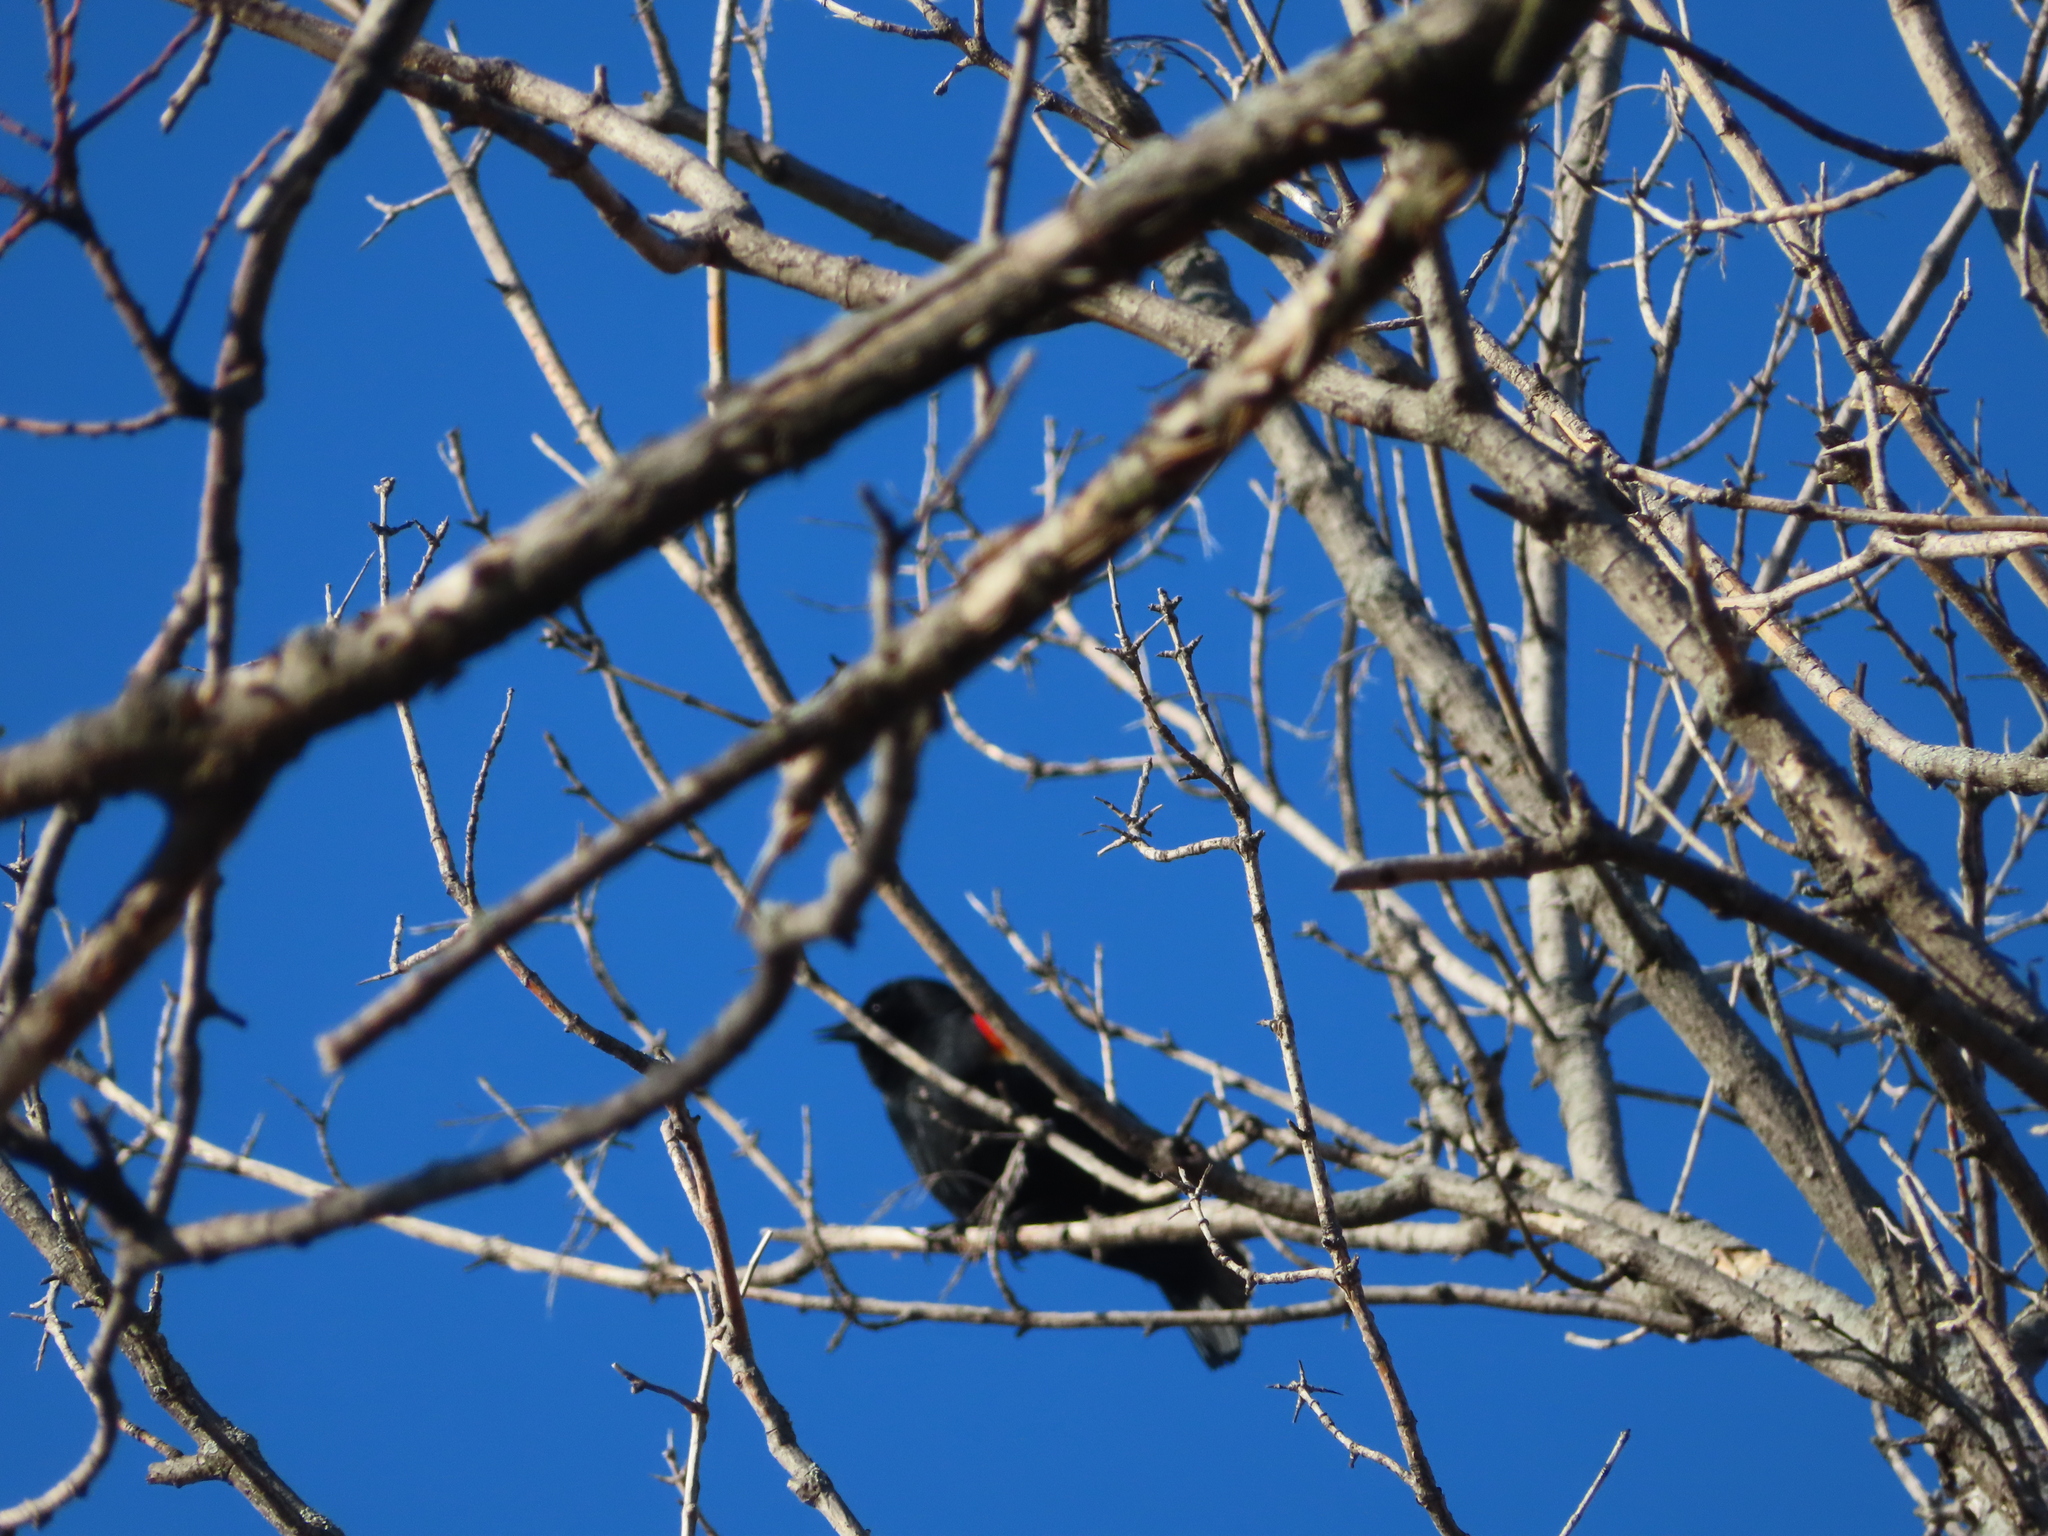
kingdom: Animalia
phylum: Chordata
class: Aves
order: Passeriformes
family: Icteridae
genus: Agelaius
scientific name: Agelaius phoeniceus
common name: Red-winged blackbird
